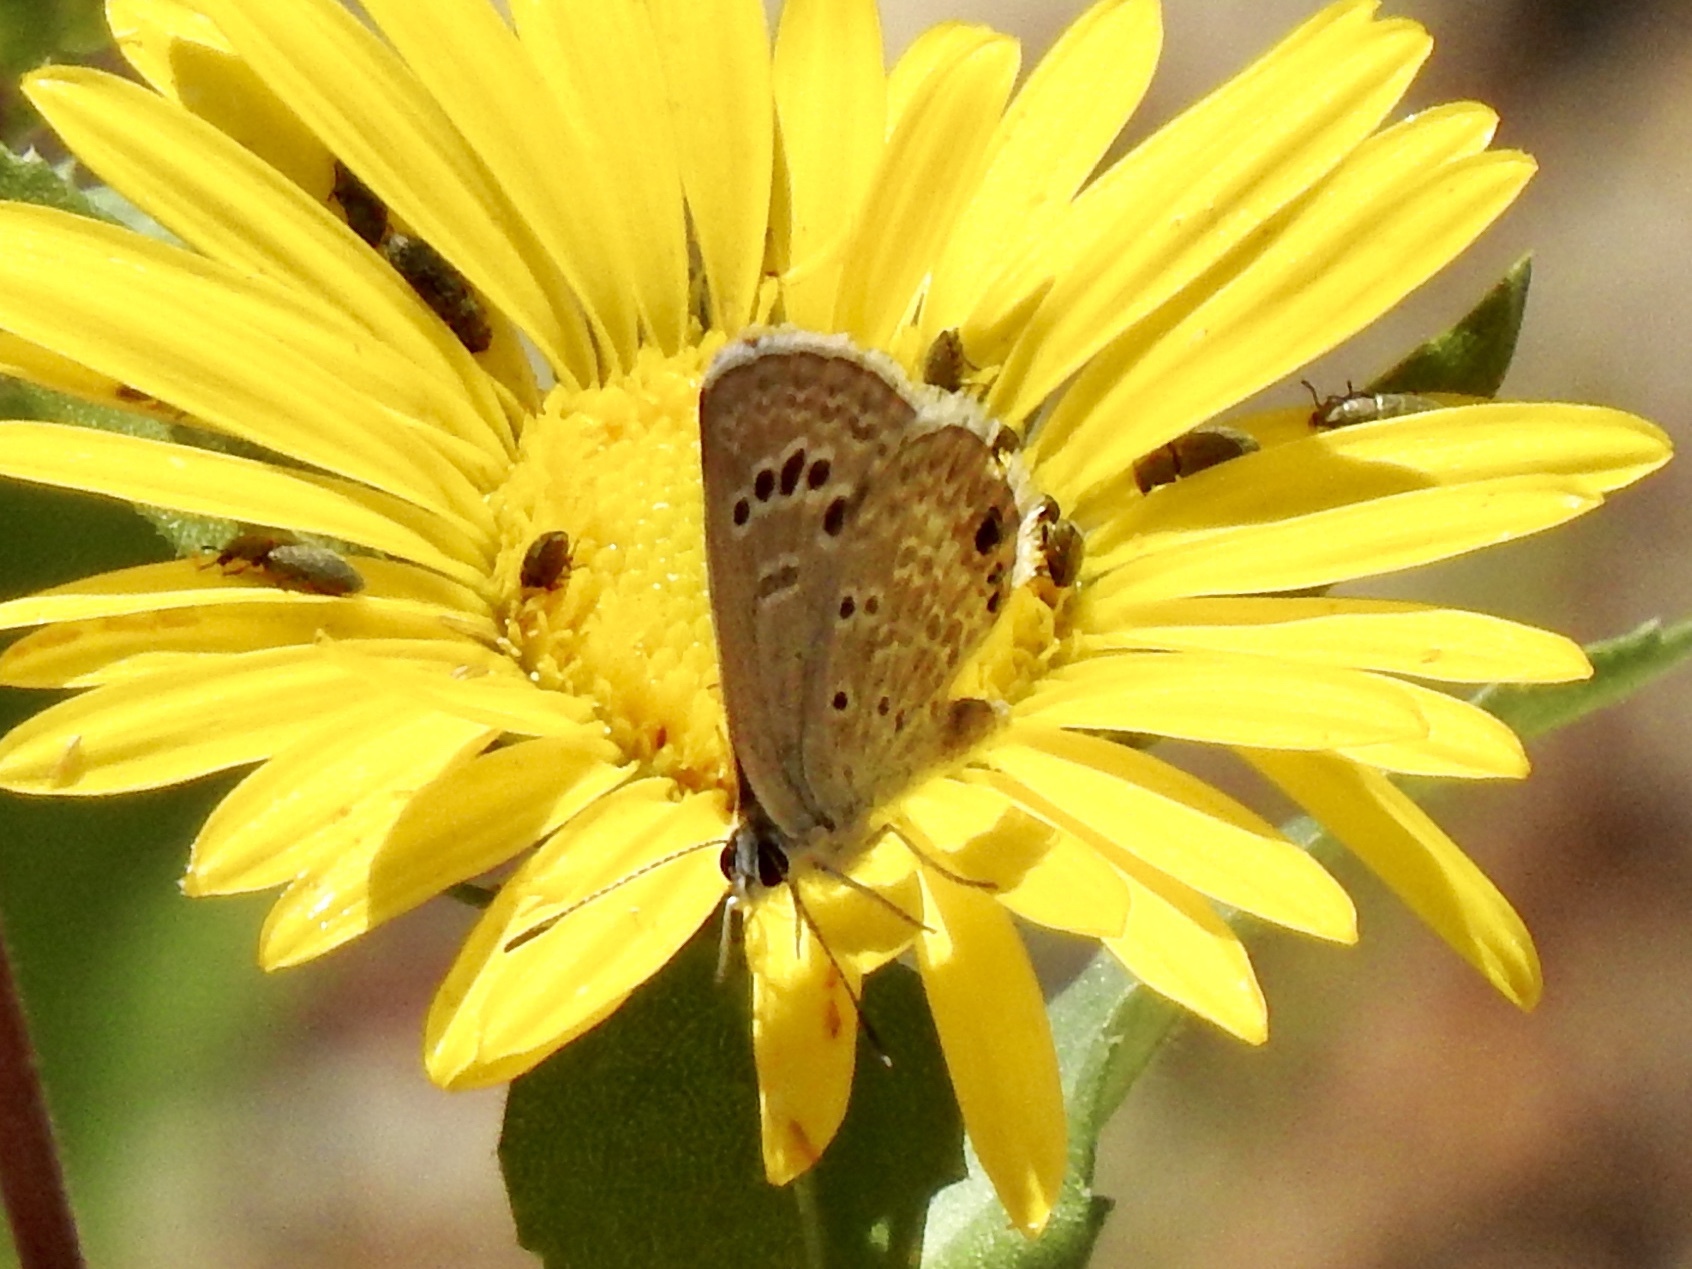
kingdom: Animalia
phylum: Arthropoda
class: Insecta
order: Lepidoptera
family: Lycaenidae
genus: Echinargus
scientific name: Echinargus isola
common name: Reakirt's blue
